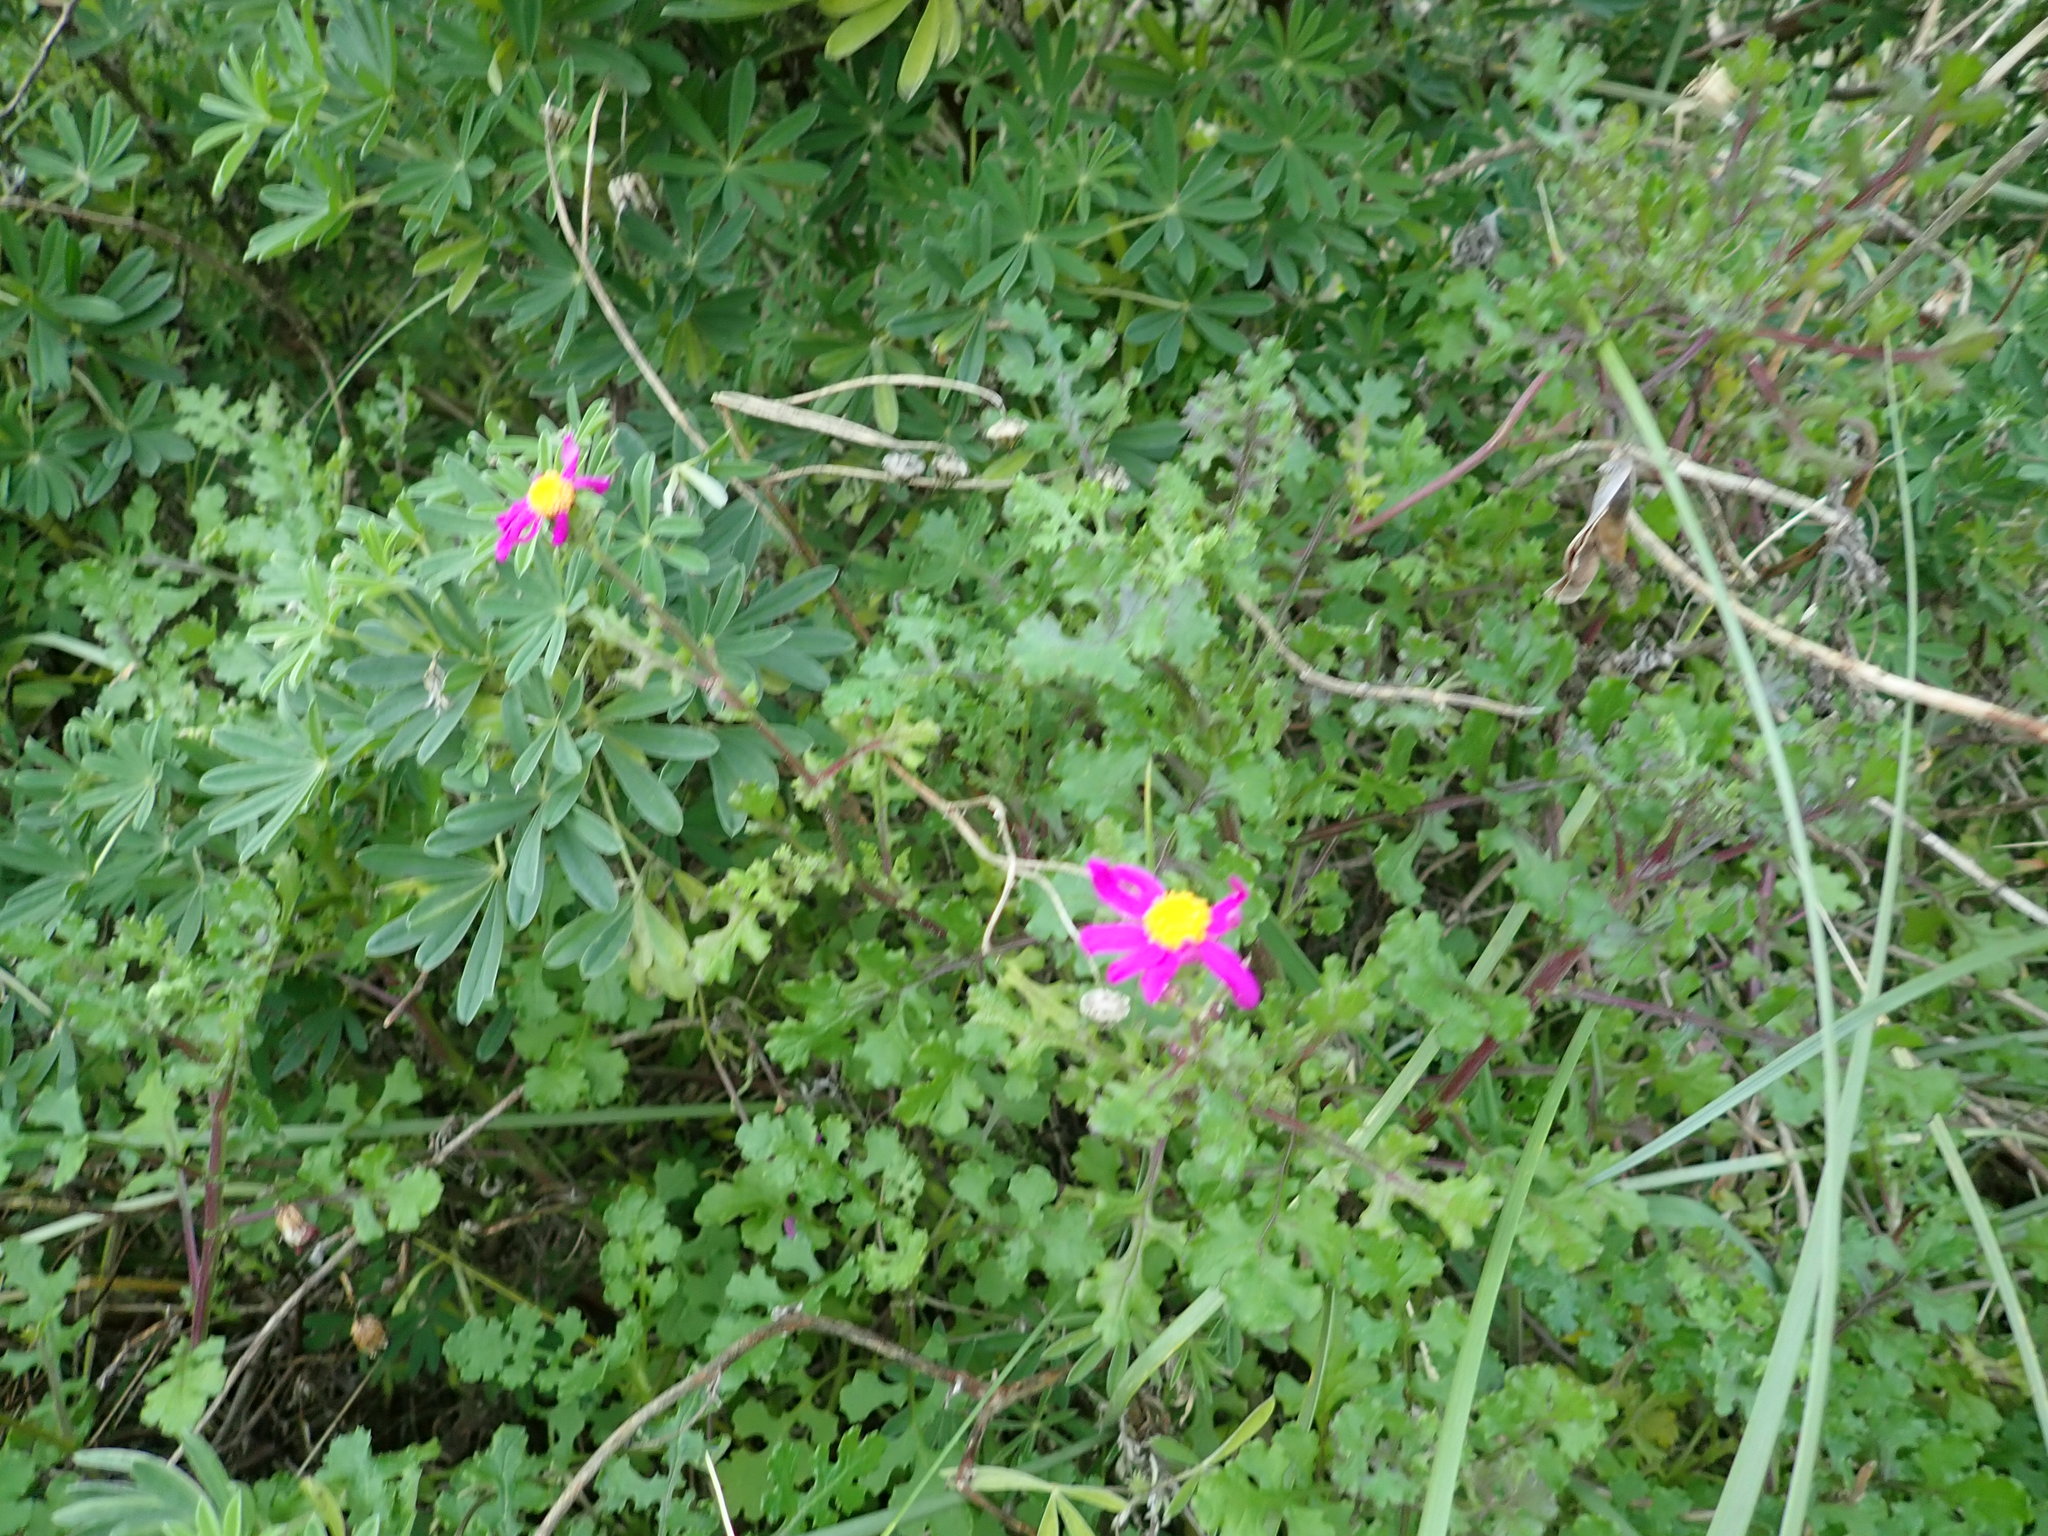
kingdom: Plantae
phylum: Tracheophyta
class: Magnoliopsida
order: Asterales
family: Asteraceae
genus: Senecio
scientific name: Senecio elegans
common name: Purple groundsel
